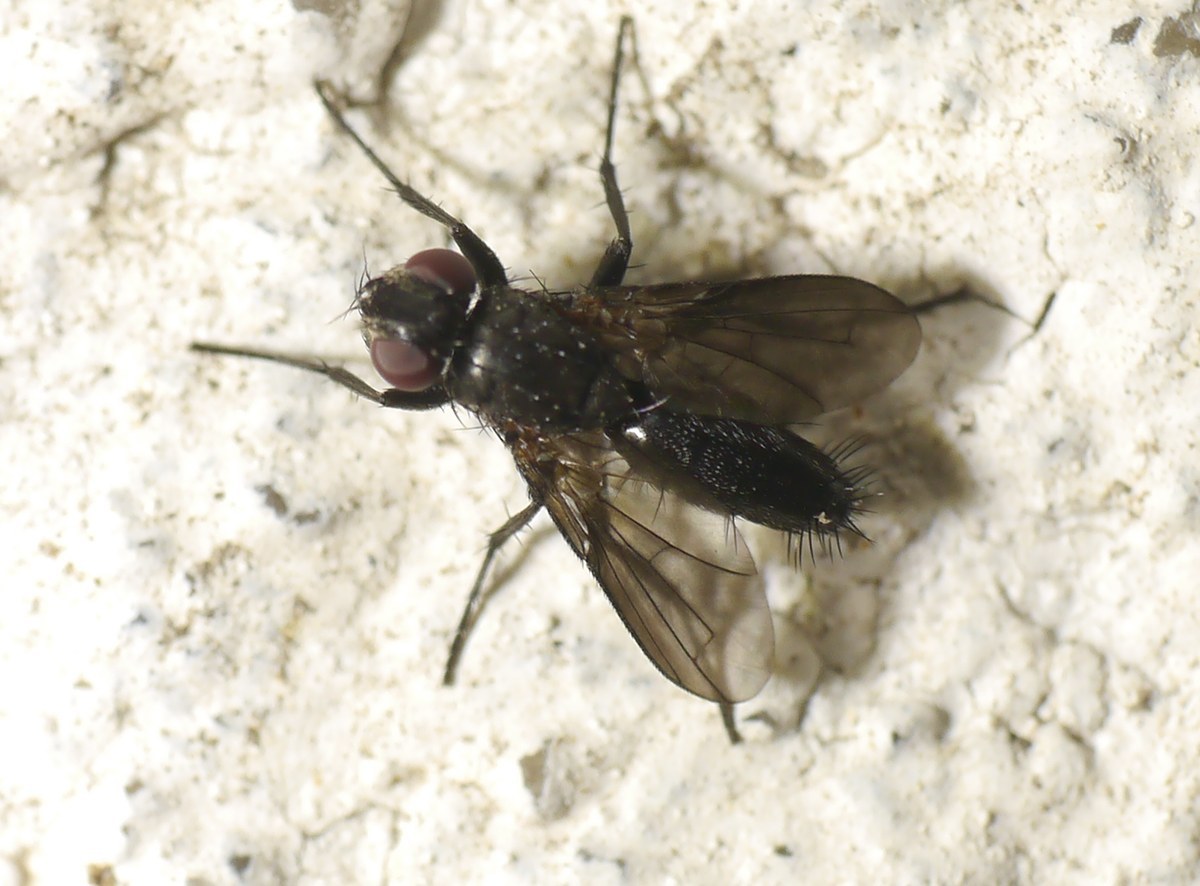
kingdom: Animalia
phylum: Arthropoda
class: Insecta
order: Diptera
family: Calliphoridae
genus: Melanophora
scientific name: Melanophora roralis
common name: Smoky-winged woodlouse-fly
